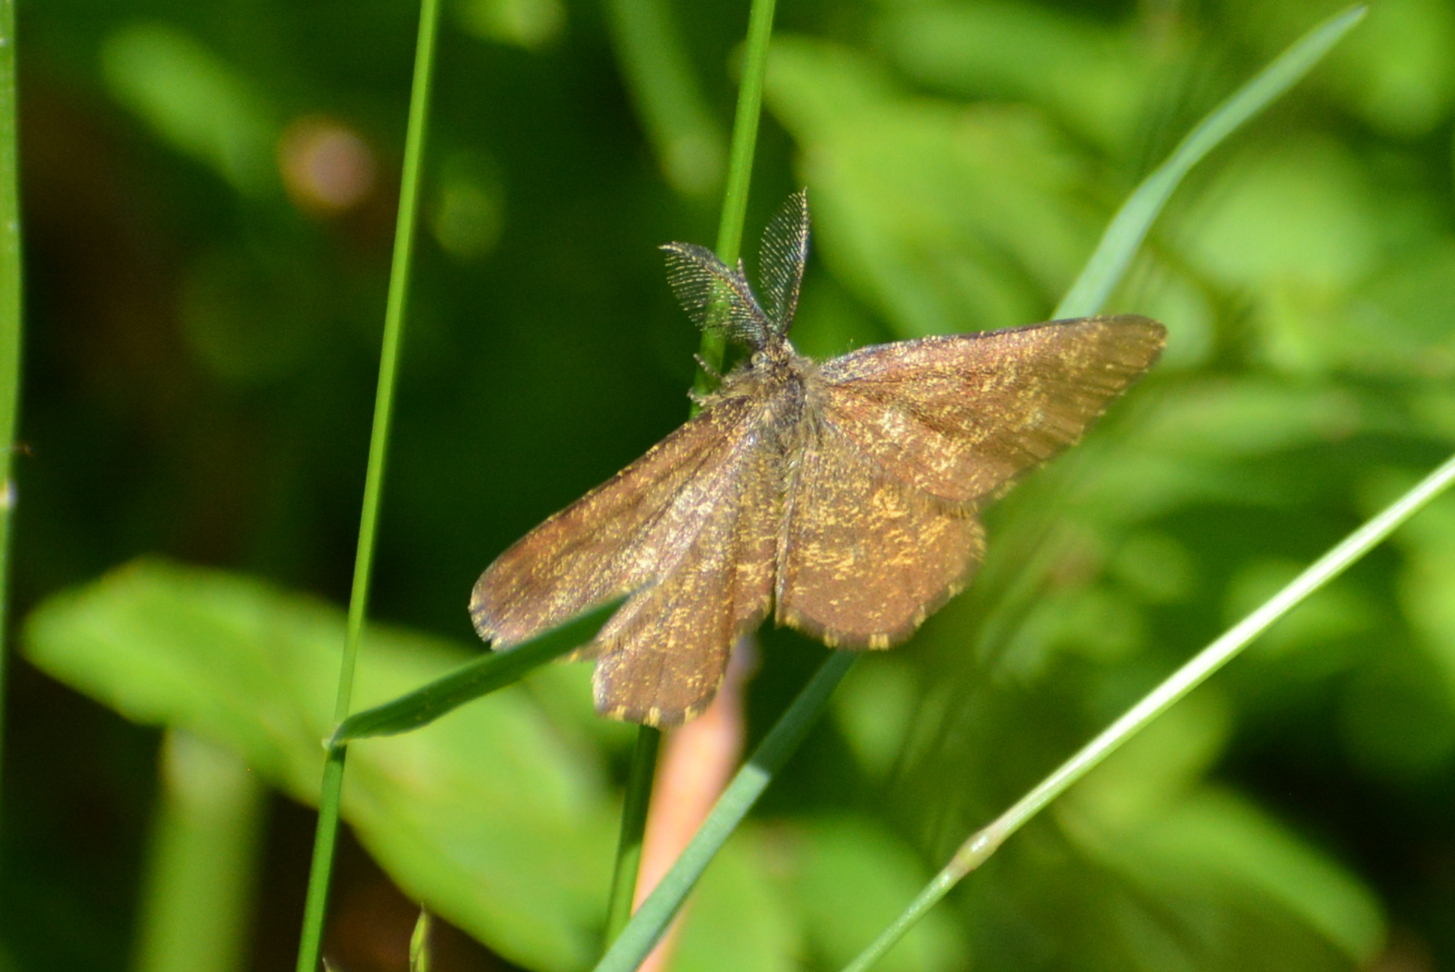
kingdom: Animalia
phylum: Arthropoda
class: Insecta
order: Lepidoptera
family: Geometridae
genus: Ematurga
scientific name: Ematurga atomaria
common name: Common heath
